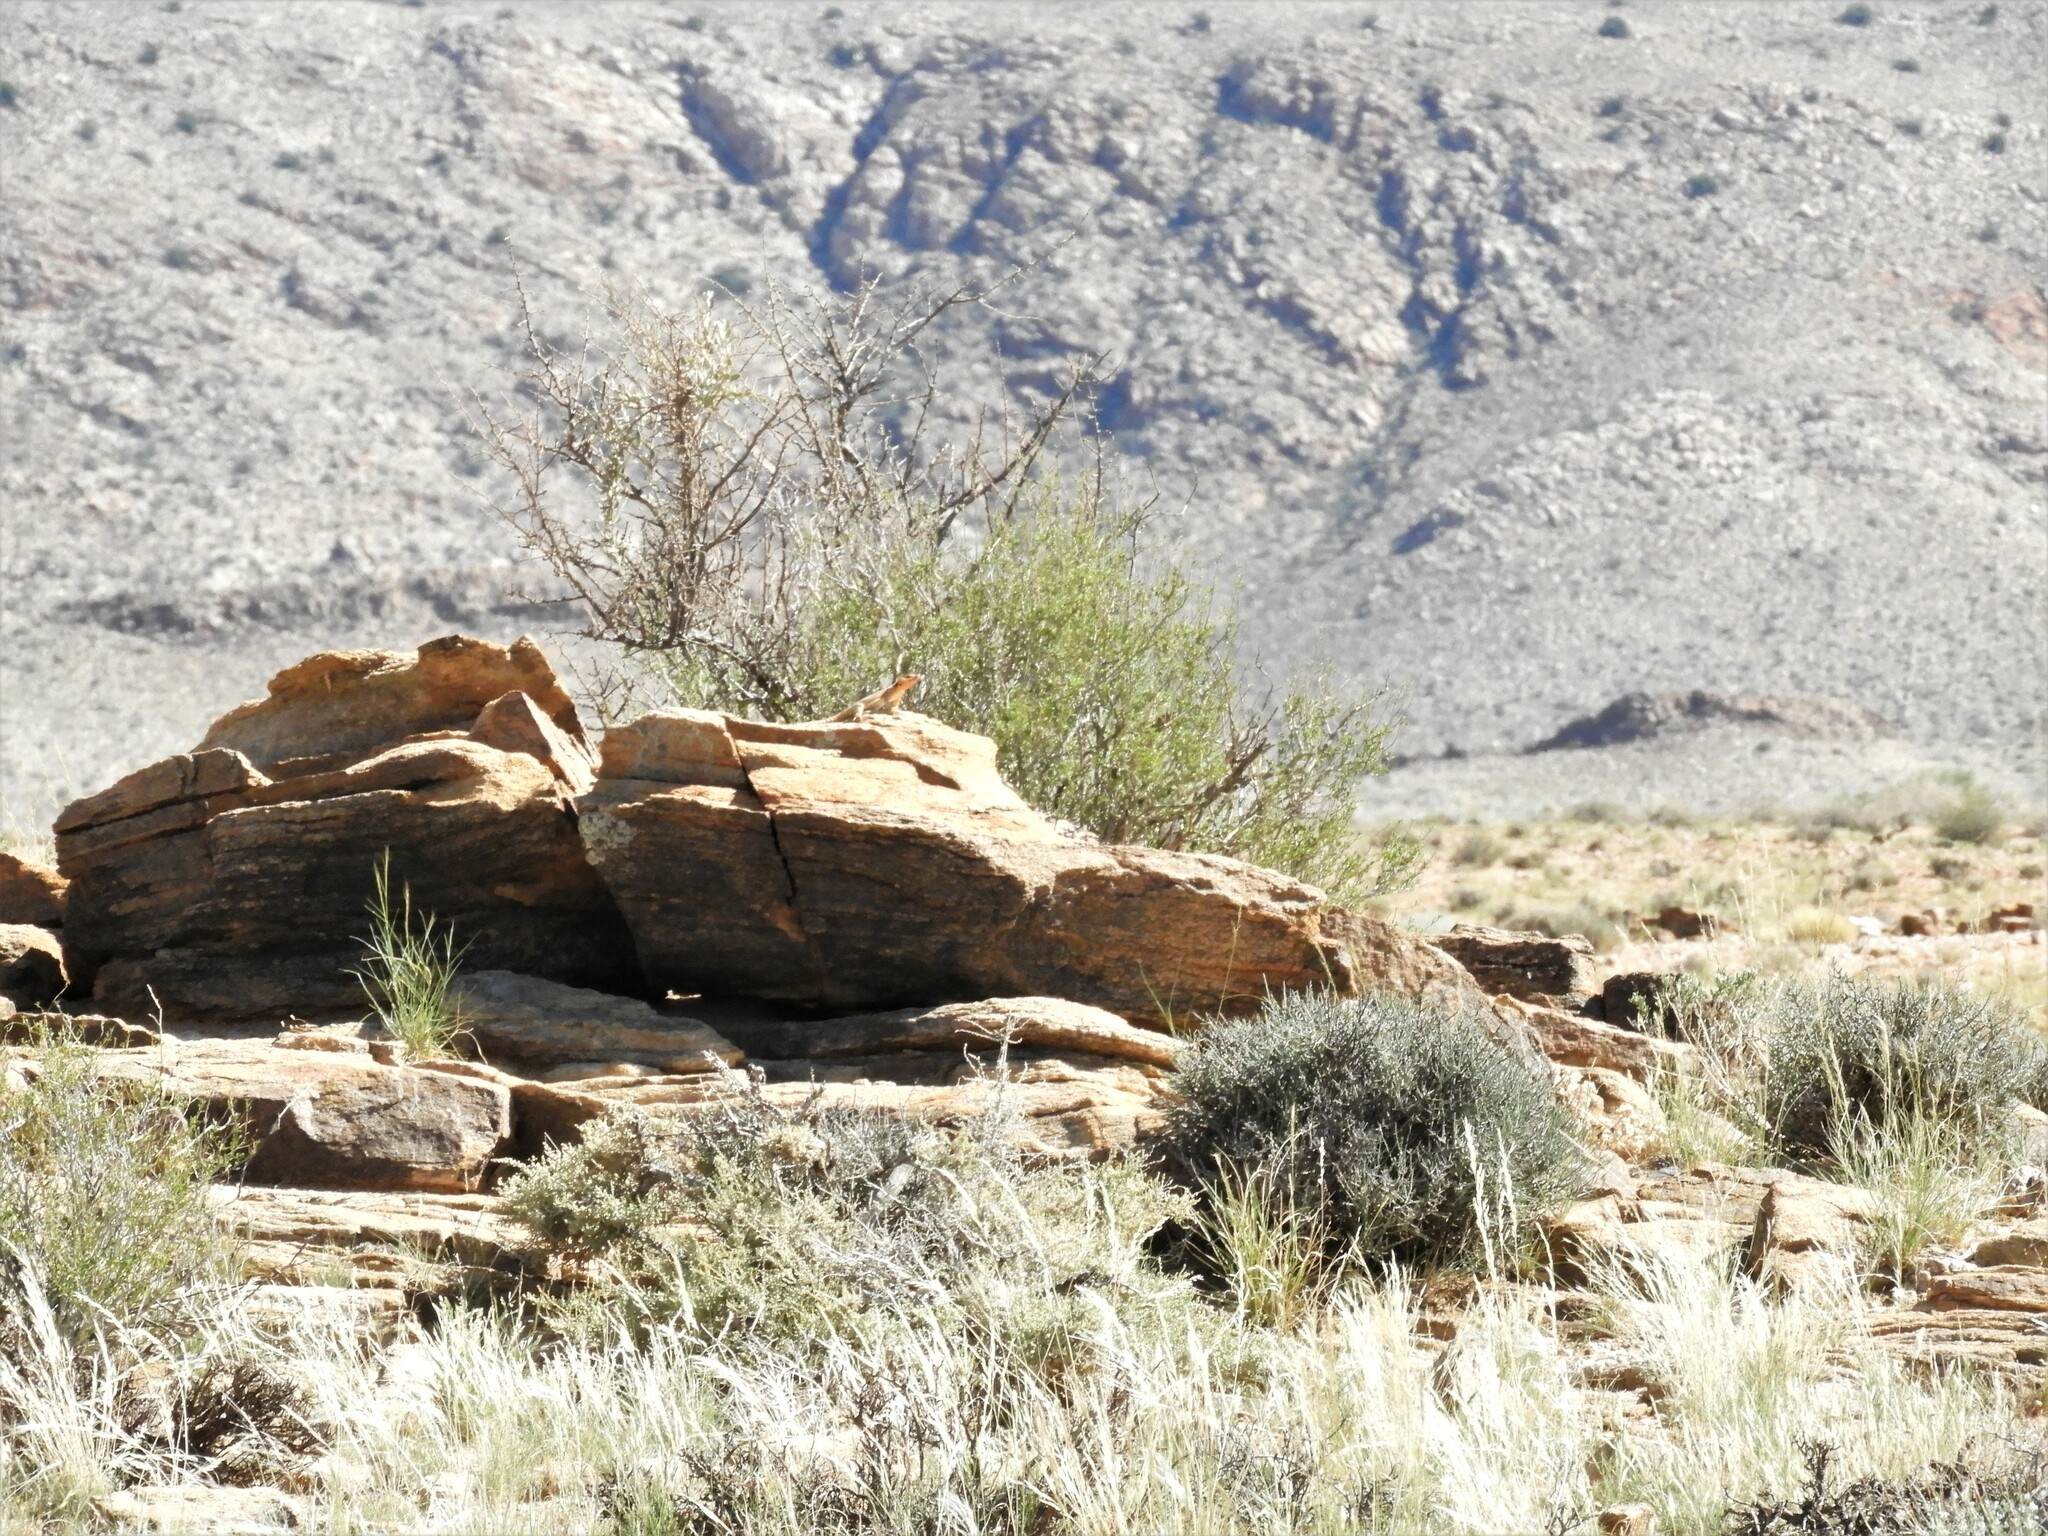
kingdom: Animalia
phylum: Chordata
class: Squamata
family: Cordylidae
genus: Karusasaurus
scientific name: Karusasaurus polyzonus
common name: Karoo girdled lizard
